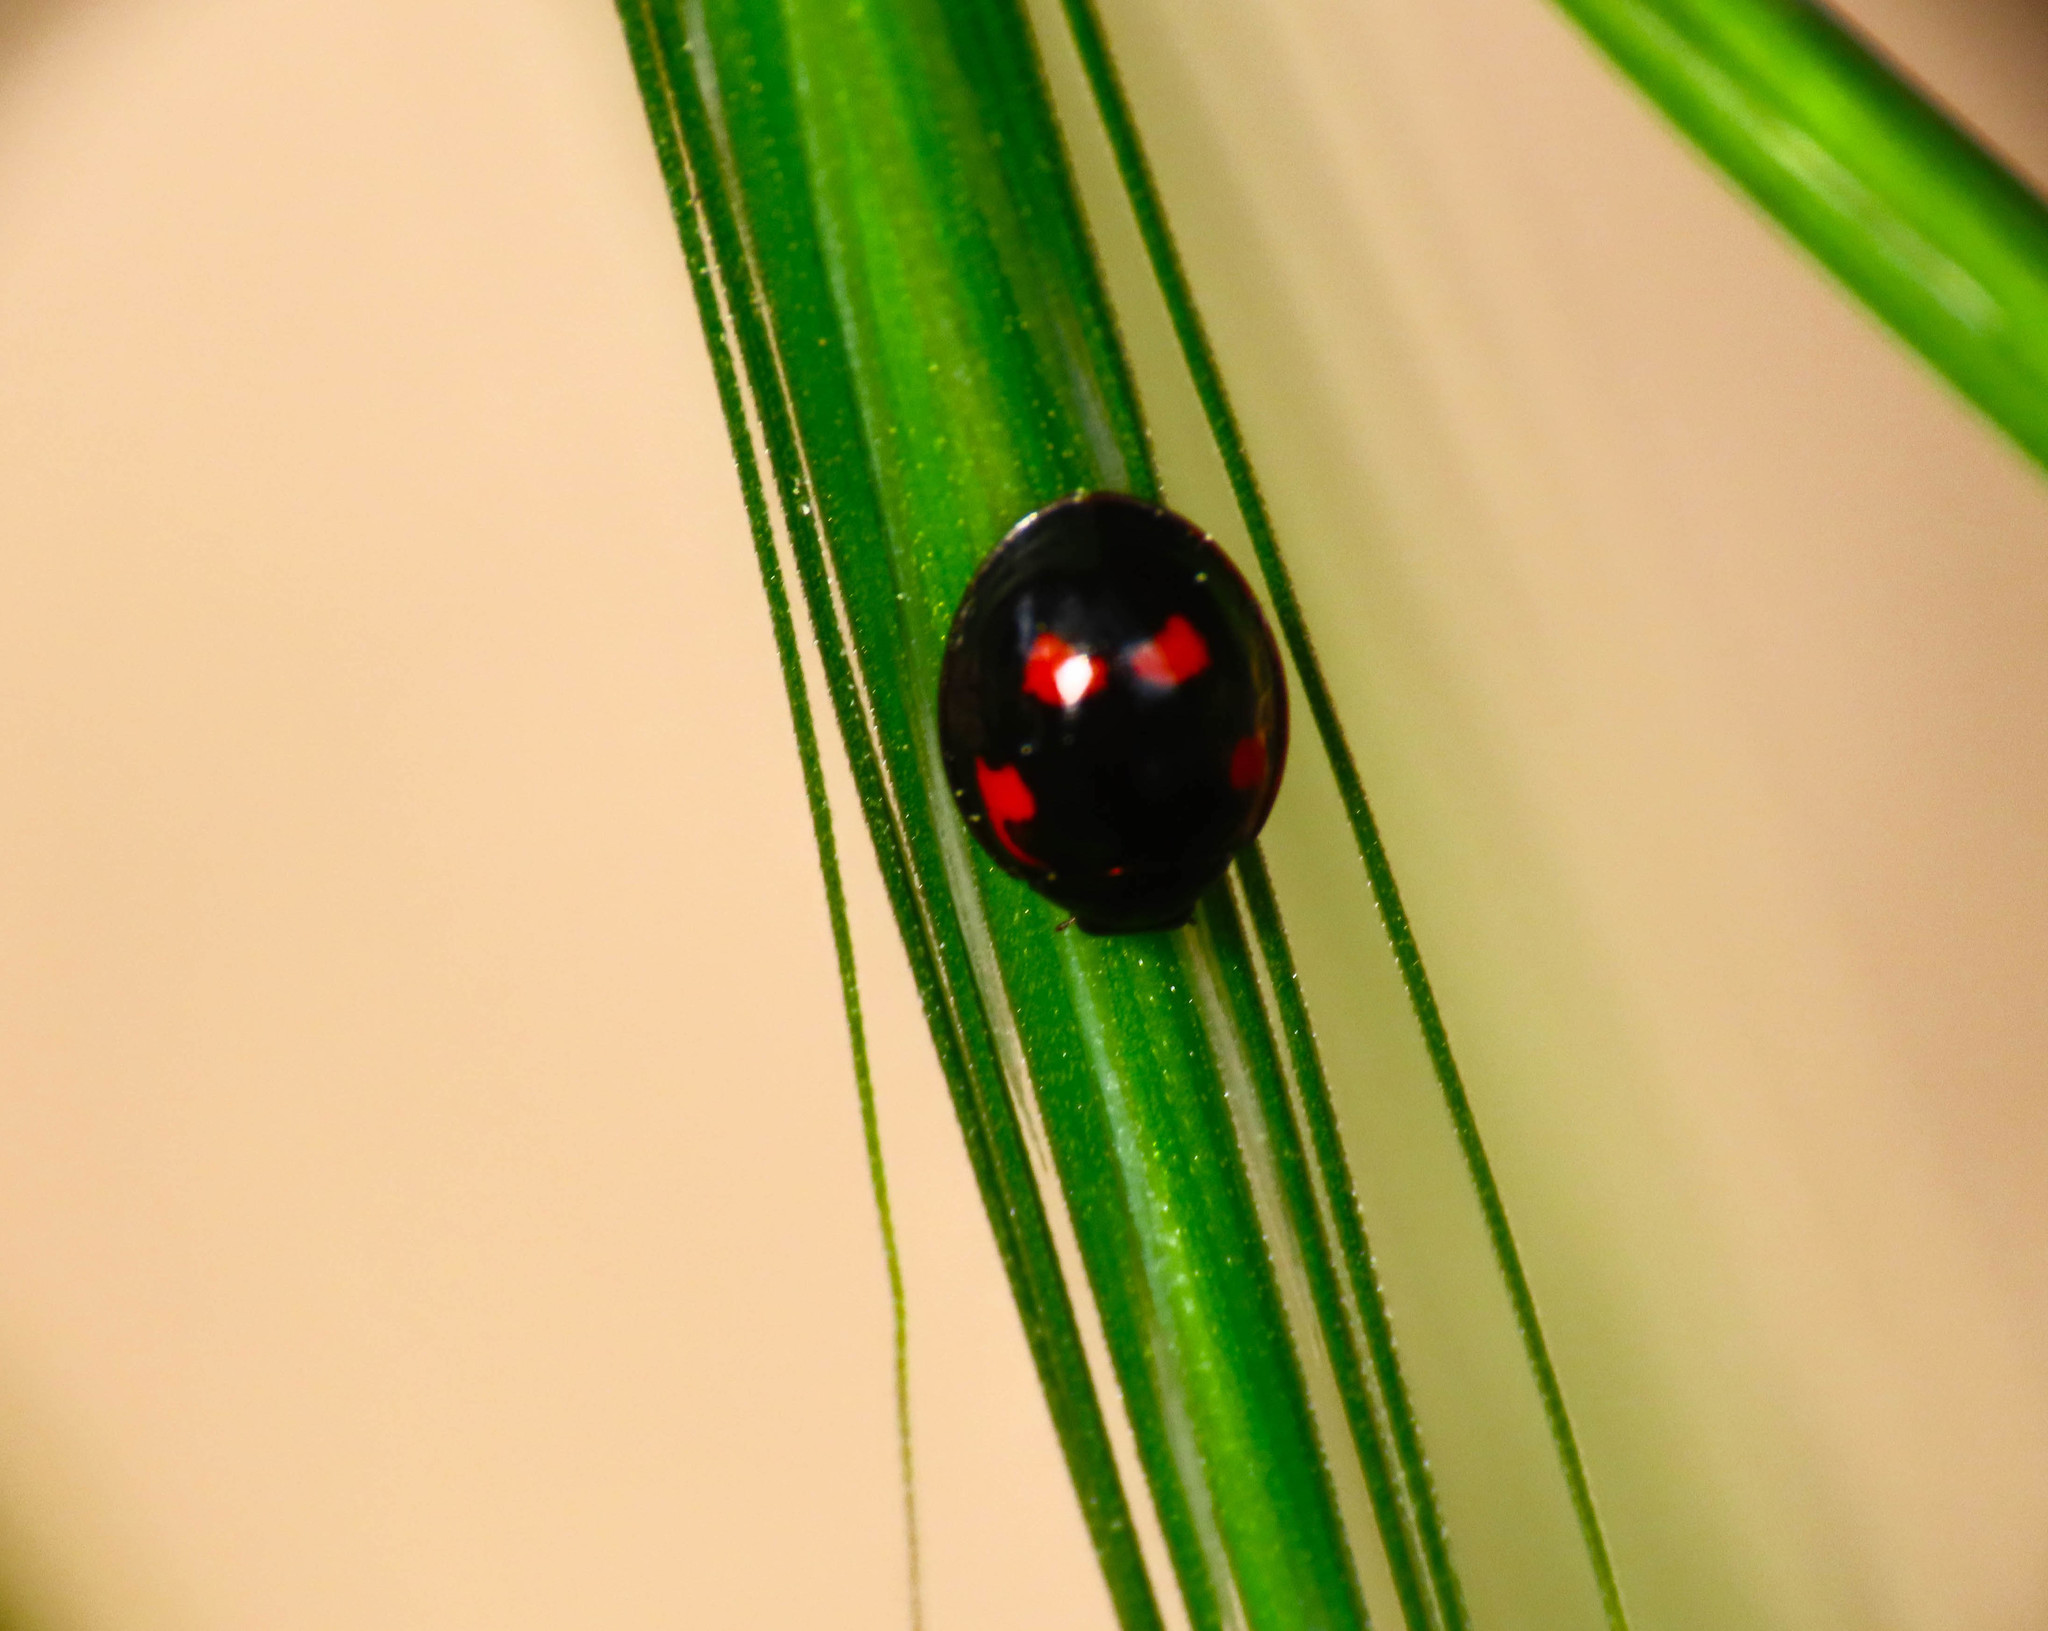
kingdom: Animalia
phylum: Arthropoda
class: Insecta
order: Coleoptera
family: Coccinellidae
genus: Brumus
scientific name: Brumus quadripustulatus
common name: Ladybird beetle
